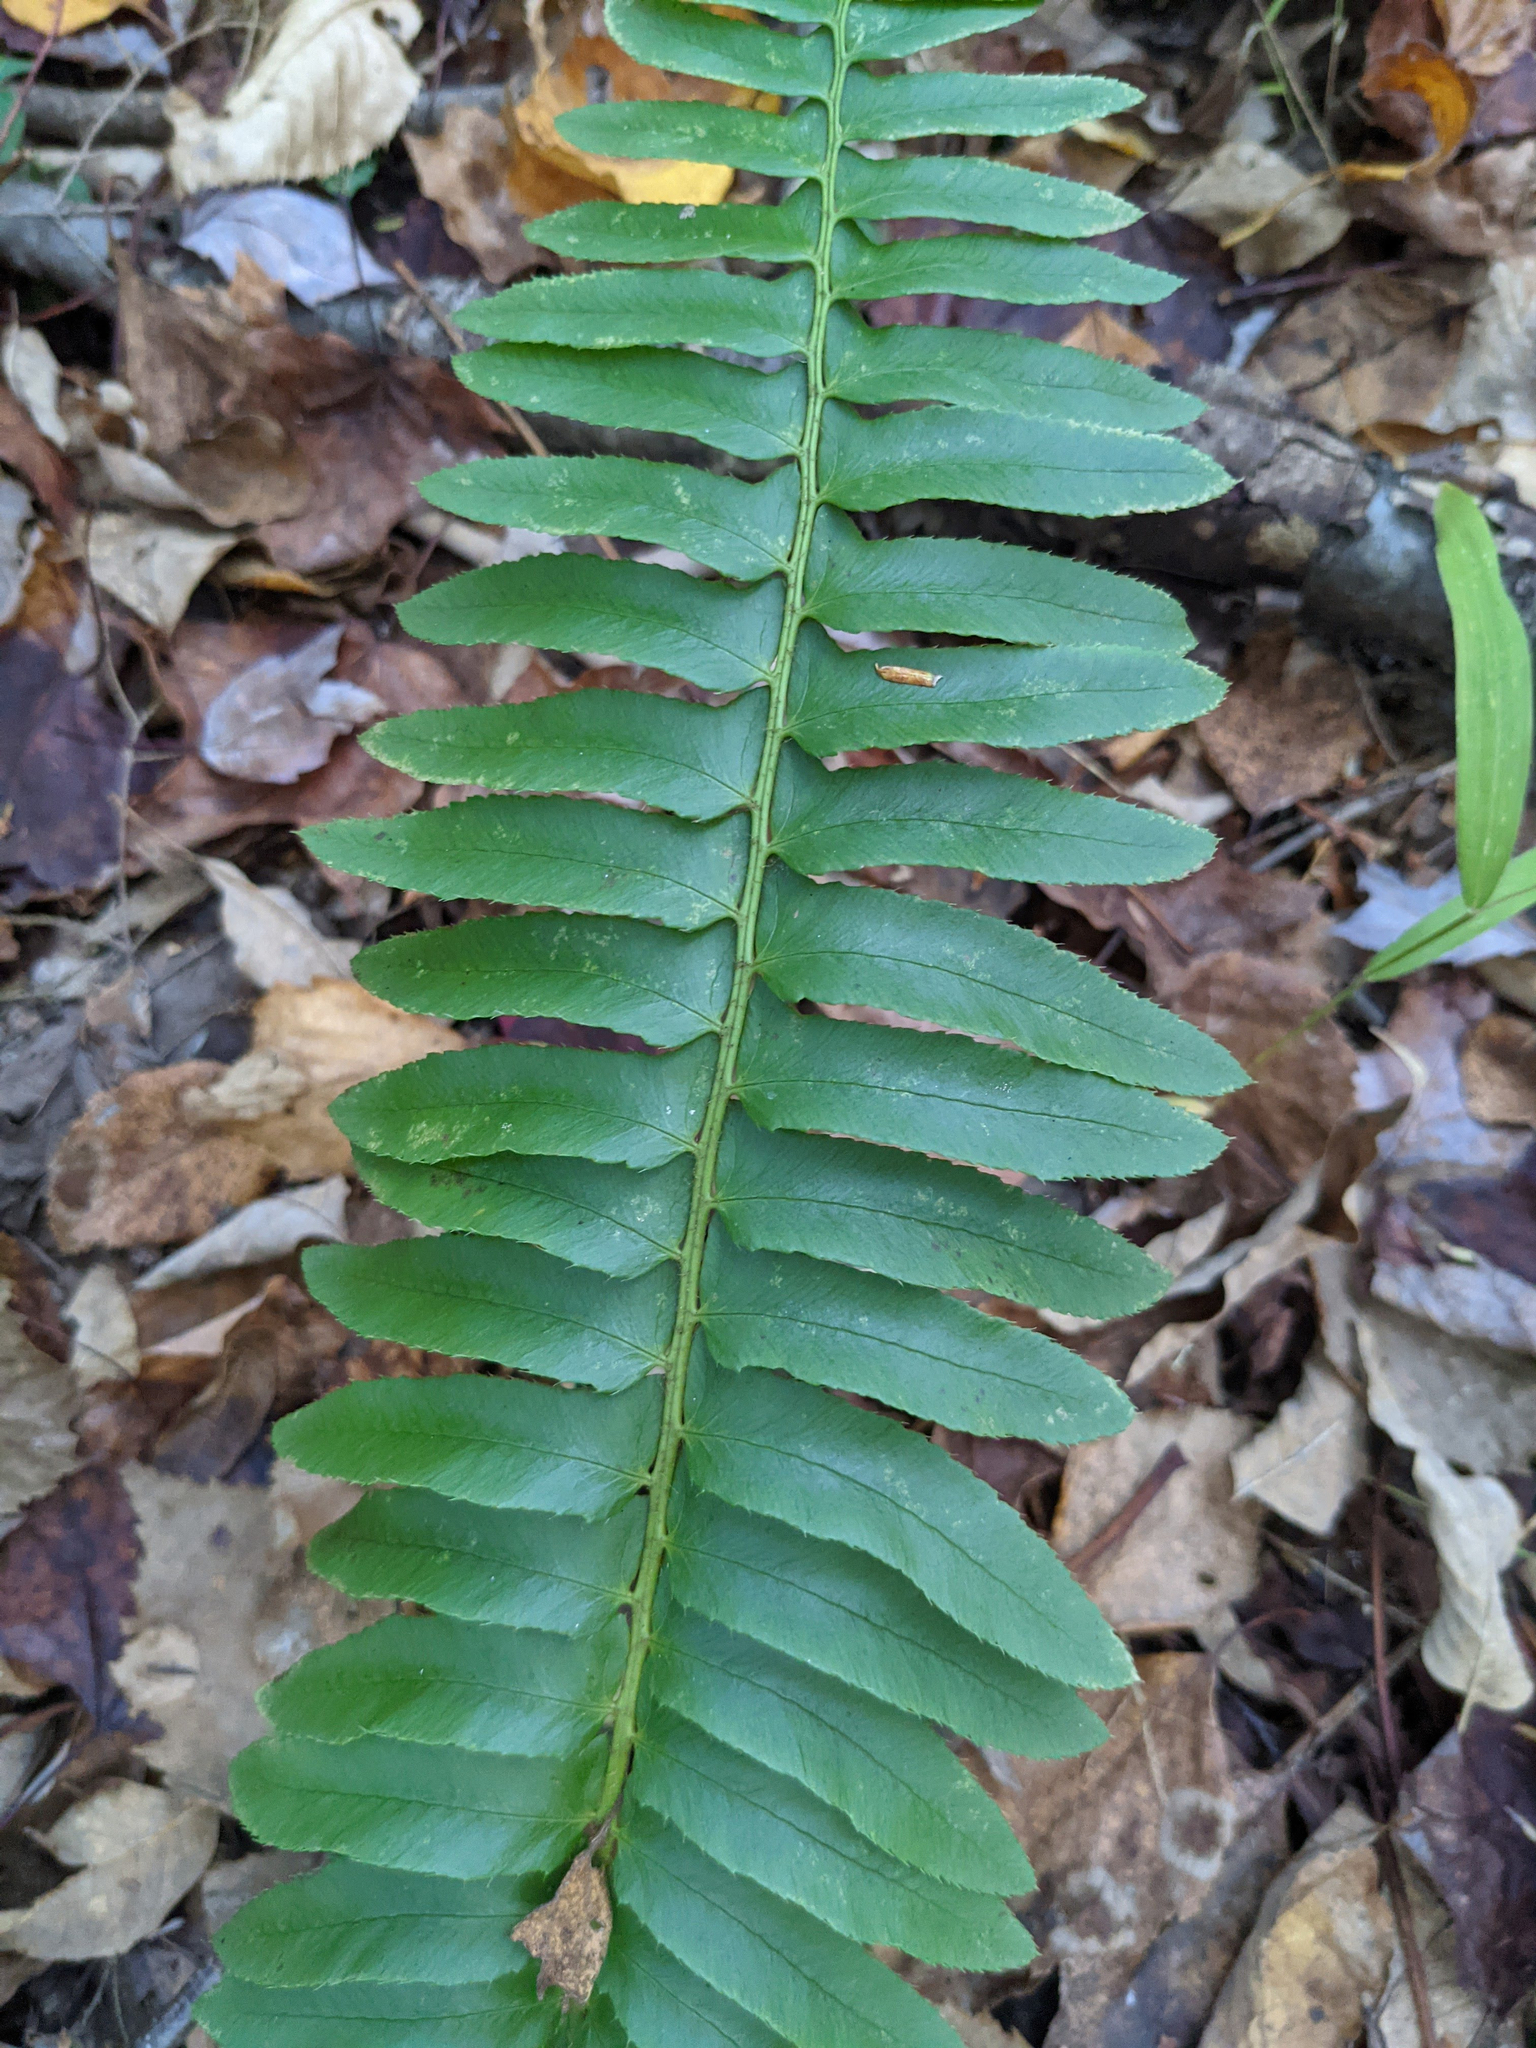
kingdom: Plantae
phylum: Tracheophyta
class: Polypodiopsida
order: Polypodiales
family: Dryopteridaceae
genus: Polystichum
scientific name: Polystichum acrostichoides
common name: Christmas fern
